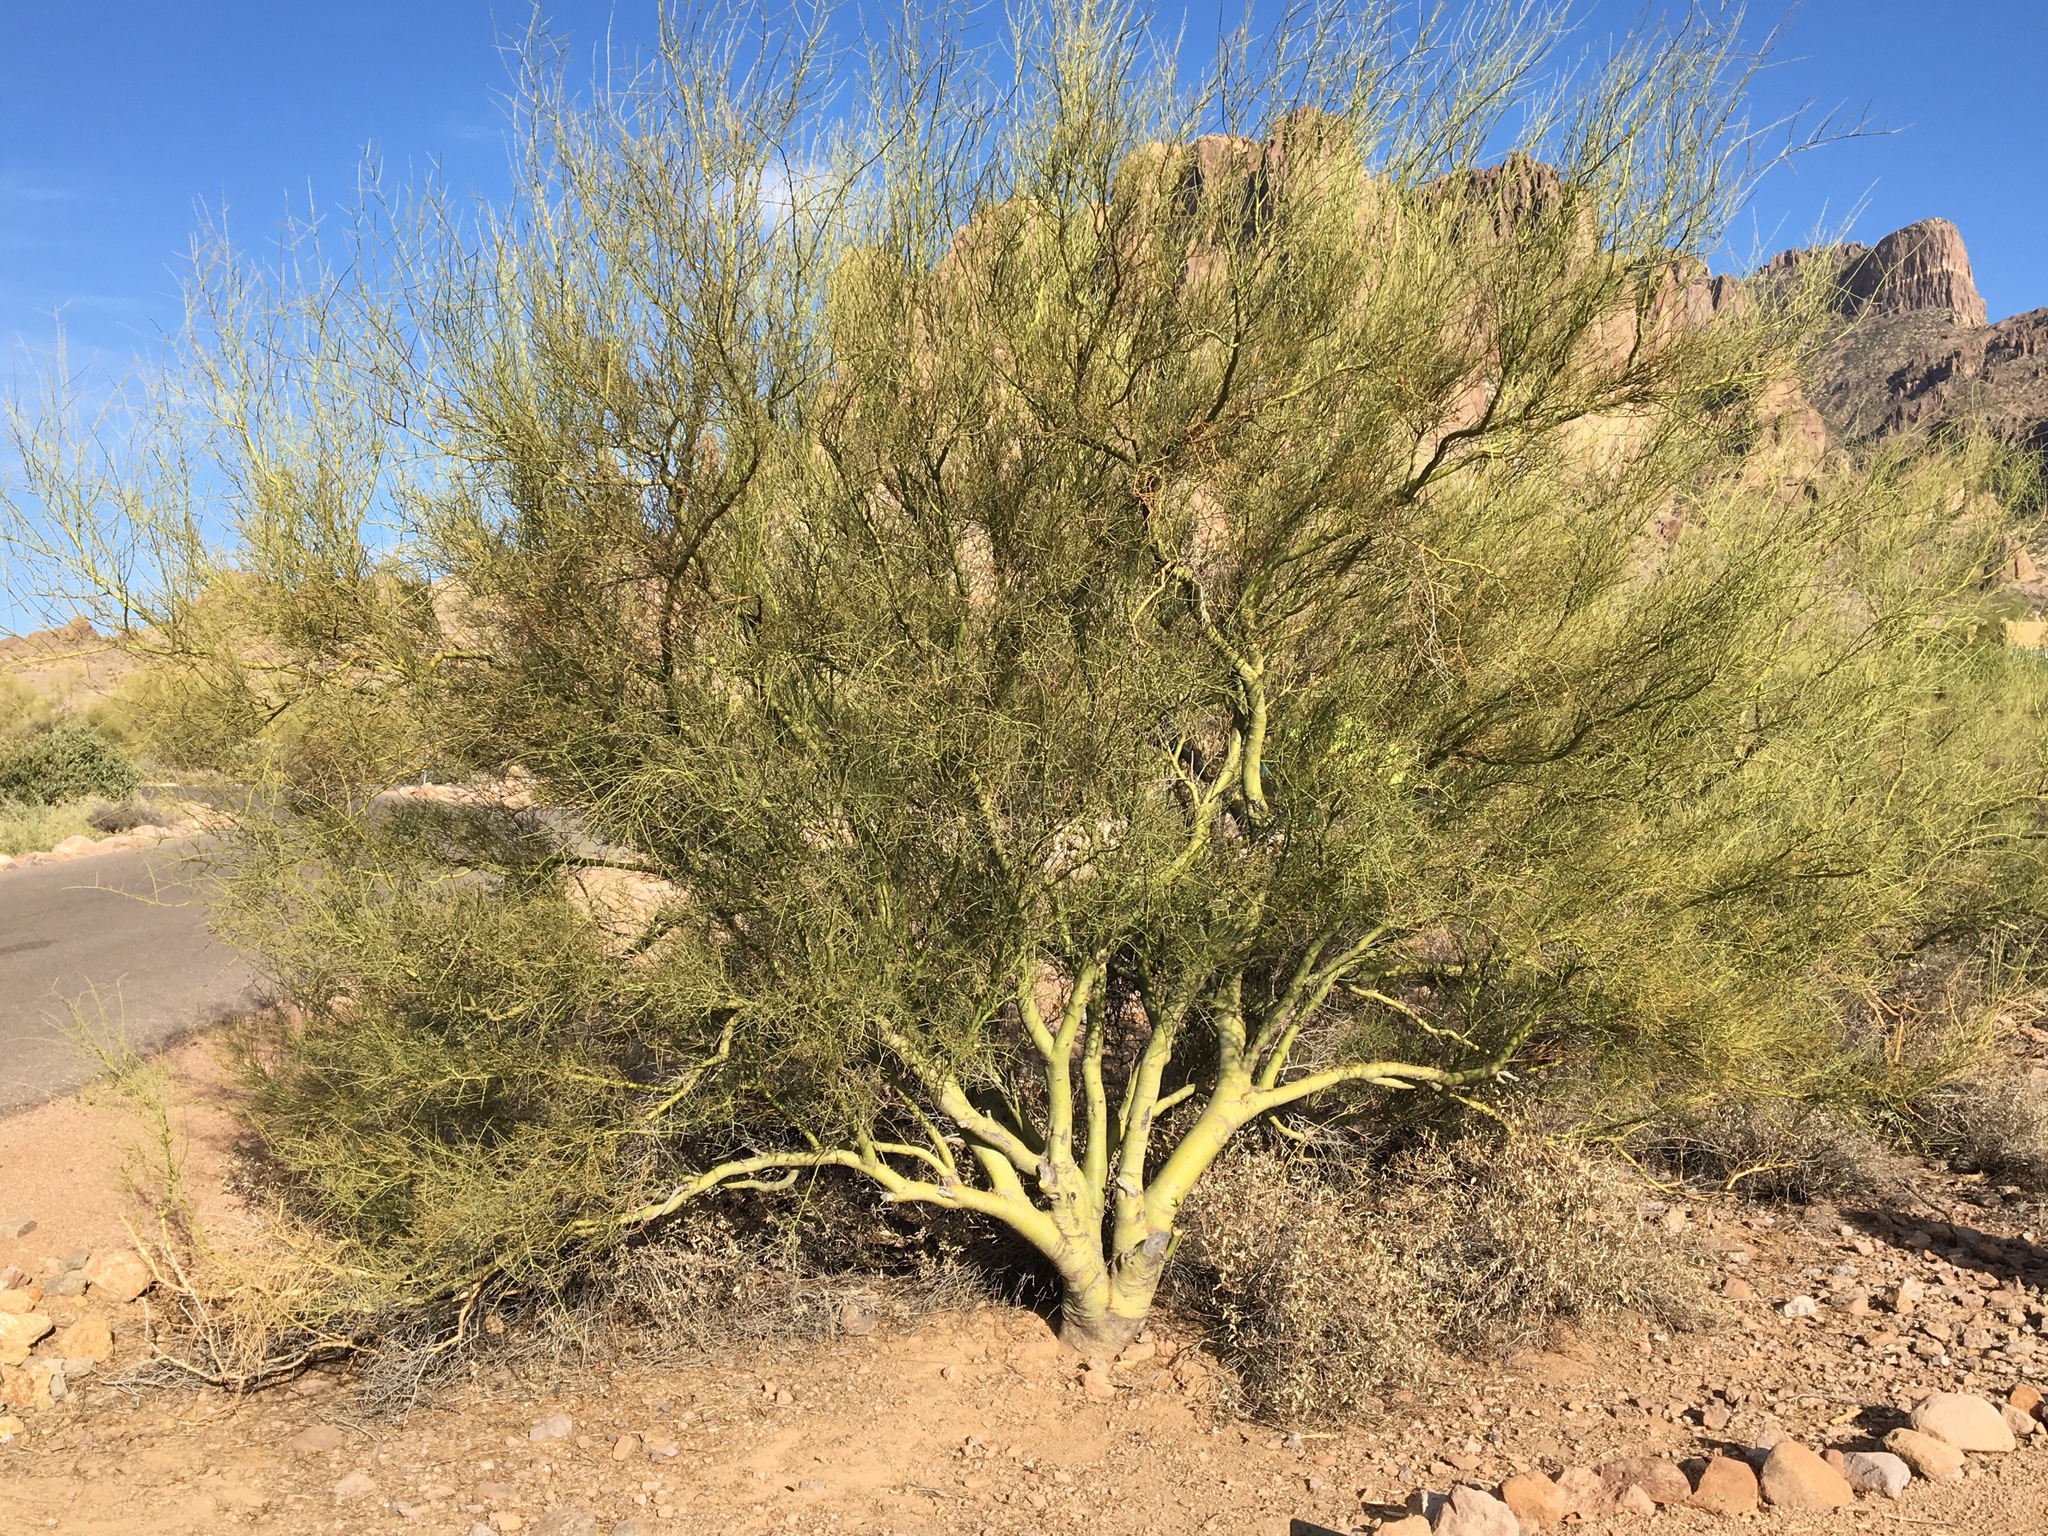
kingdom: Plantae
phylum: Tracheophyta
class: Magnoliopsida
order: Fabales
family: Fabaceae
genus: Parkinsonia
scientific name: Parkinsonia microphylla
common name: Yellow paloverde
